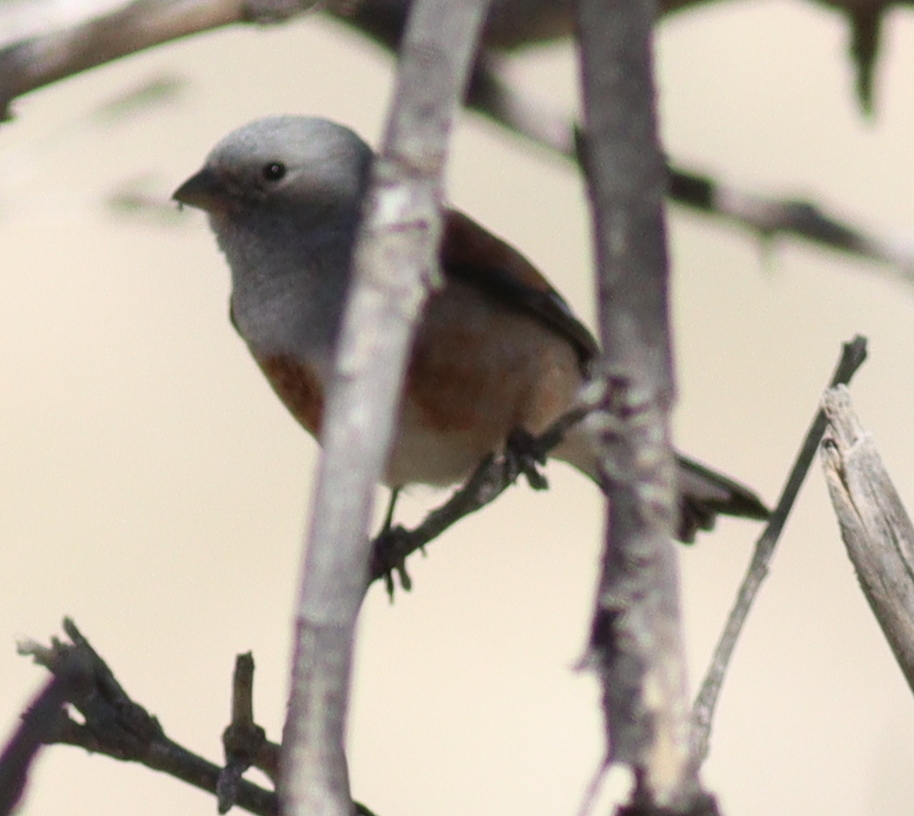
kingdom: Animalia
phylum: Chordata
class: Aves
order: Passeriformes
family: Fringillidae
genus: Linaria
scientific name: Linaria yemenensis
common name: Yemen linnet
